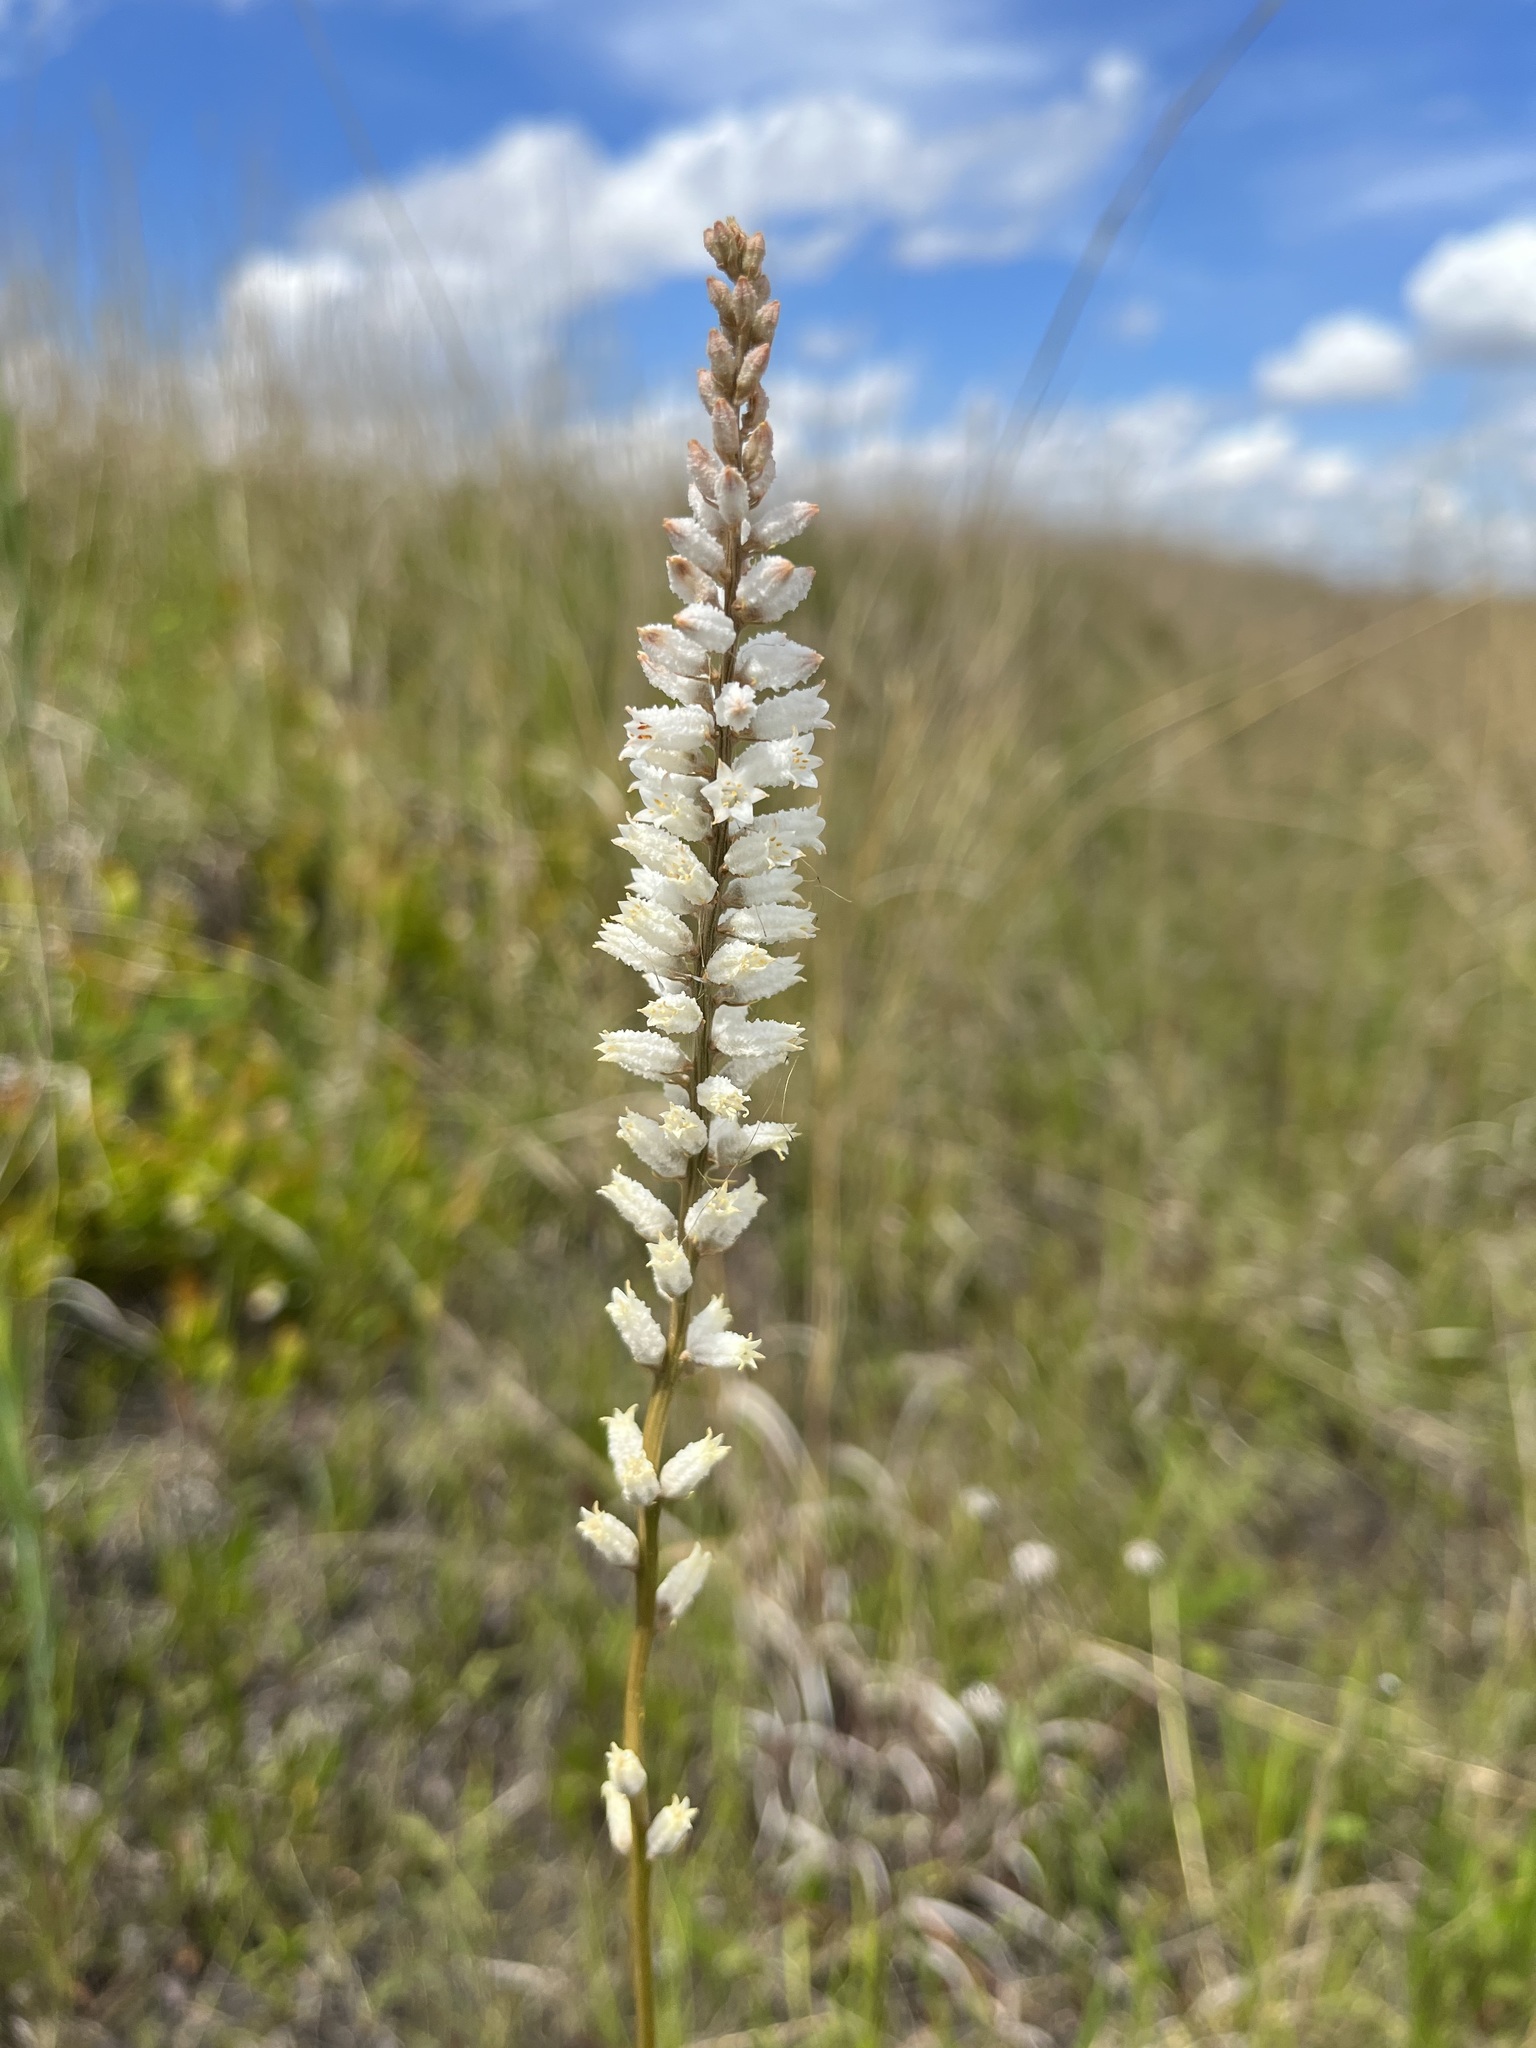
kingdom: Plantae
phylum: Tracheophyta
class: Liliopsida
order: Dioscoreales
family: Nartheciaceae
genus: Aletris
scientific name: Aletris farinosa
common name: Colicroot
